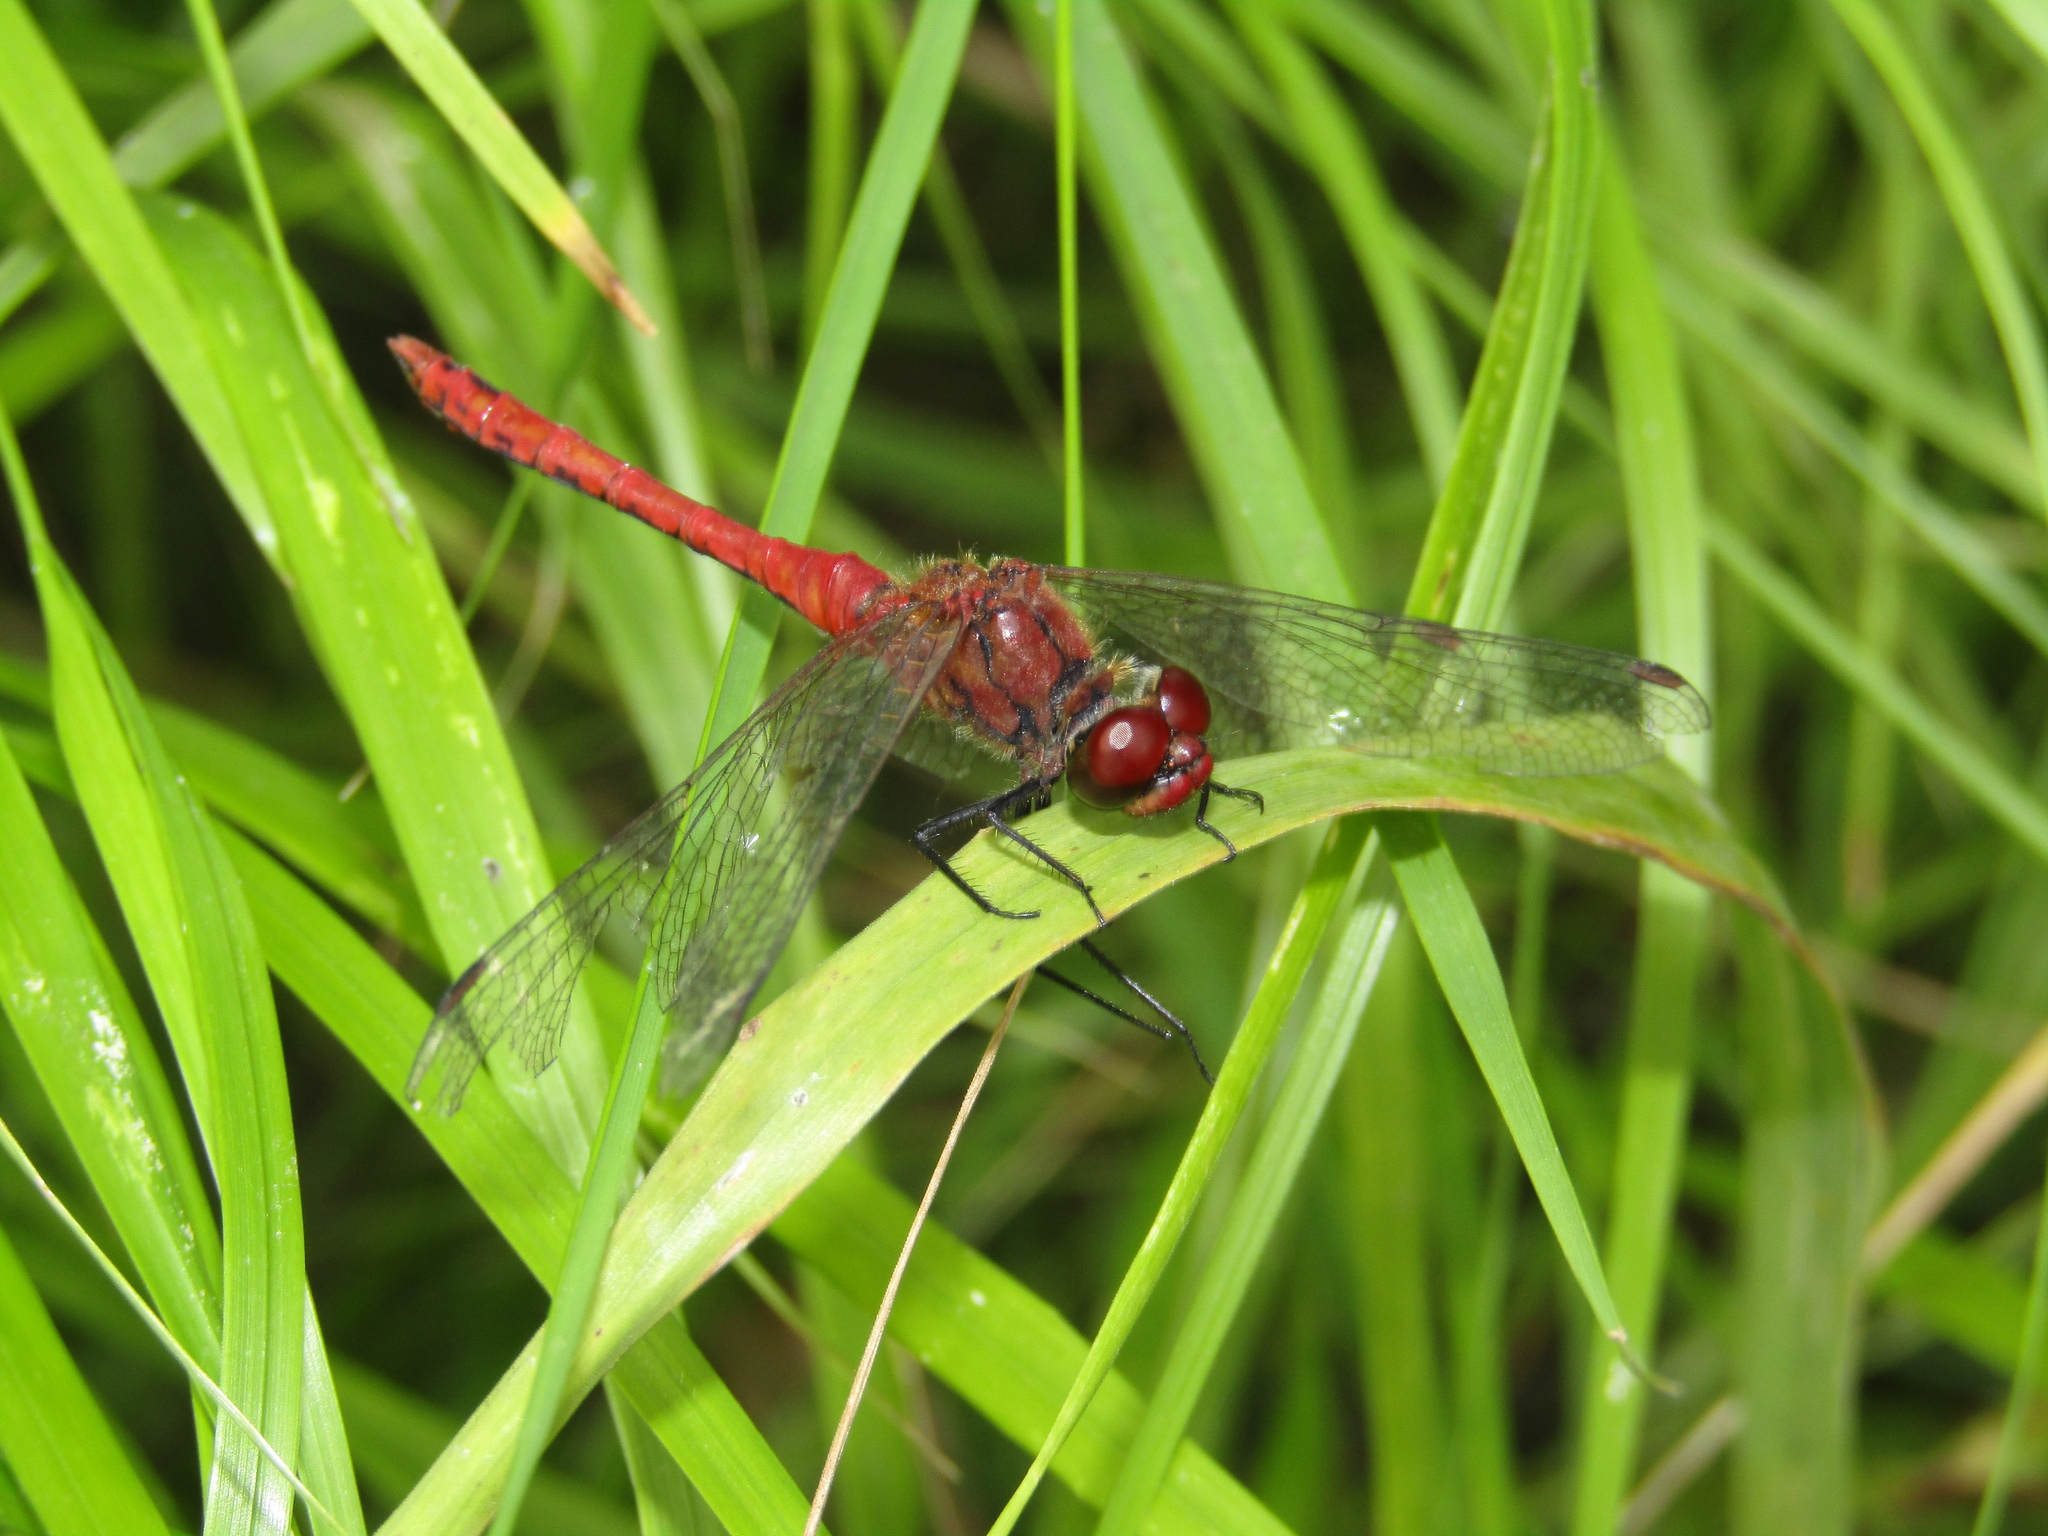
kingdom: Animalia
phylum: Arthropoda
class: Insecta
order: Odonata
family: Libellulidae
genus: Sympetrum
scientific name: Sympetrum sanguineum
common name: Ruddy darter
